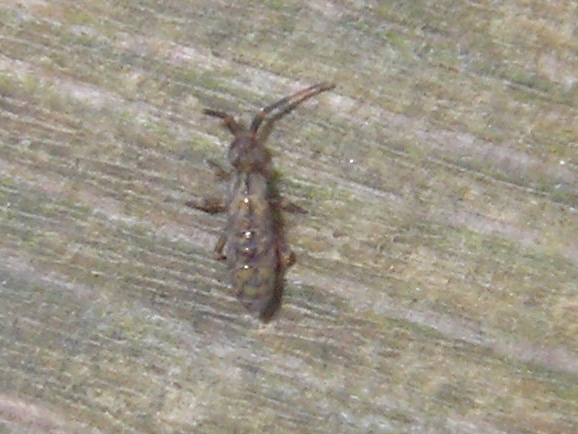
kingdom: Animalia
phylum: Arthropoda
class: Collembola
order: Entomobryomorpha
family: Orchesellidae
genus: Orchesella
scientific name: Orchesella villosa
